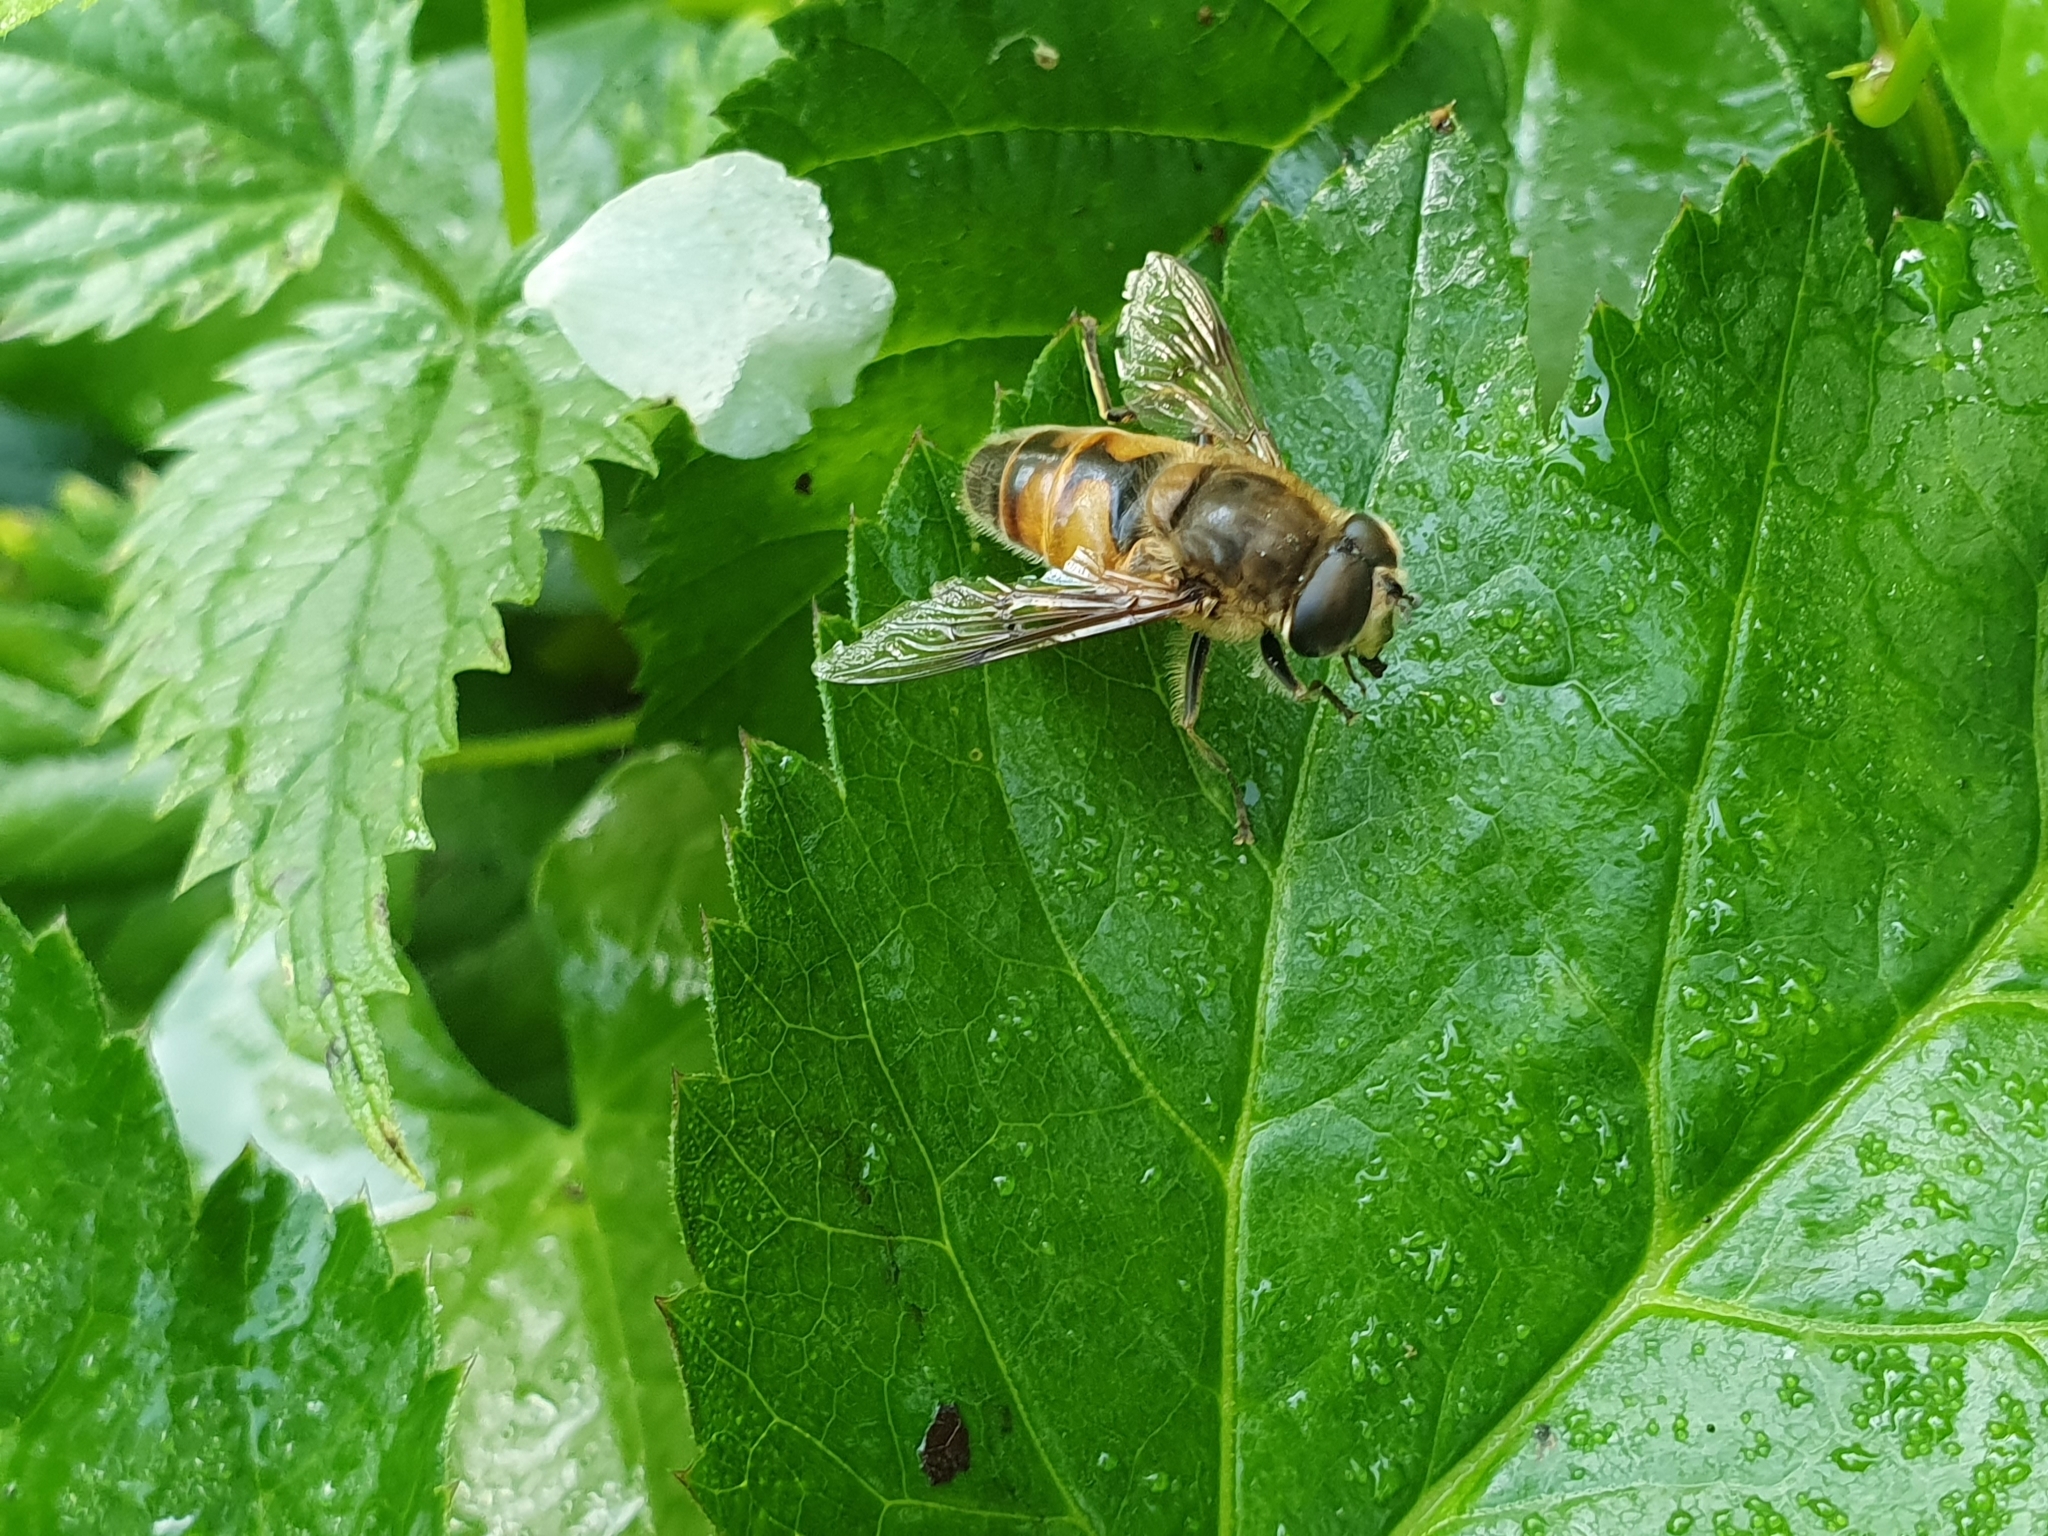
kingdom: Animalia
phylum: Arthropoda
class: Insecta
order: Diptera
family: Syrphidae
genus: Eristalis
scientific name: Eristalis tenax
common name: Drone fly
